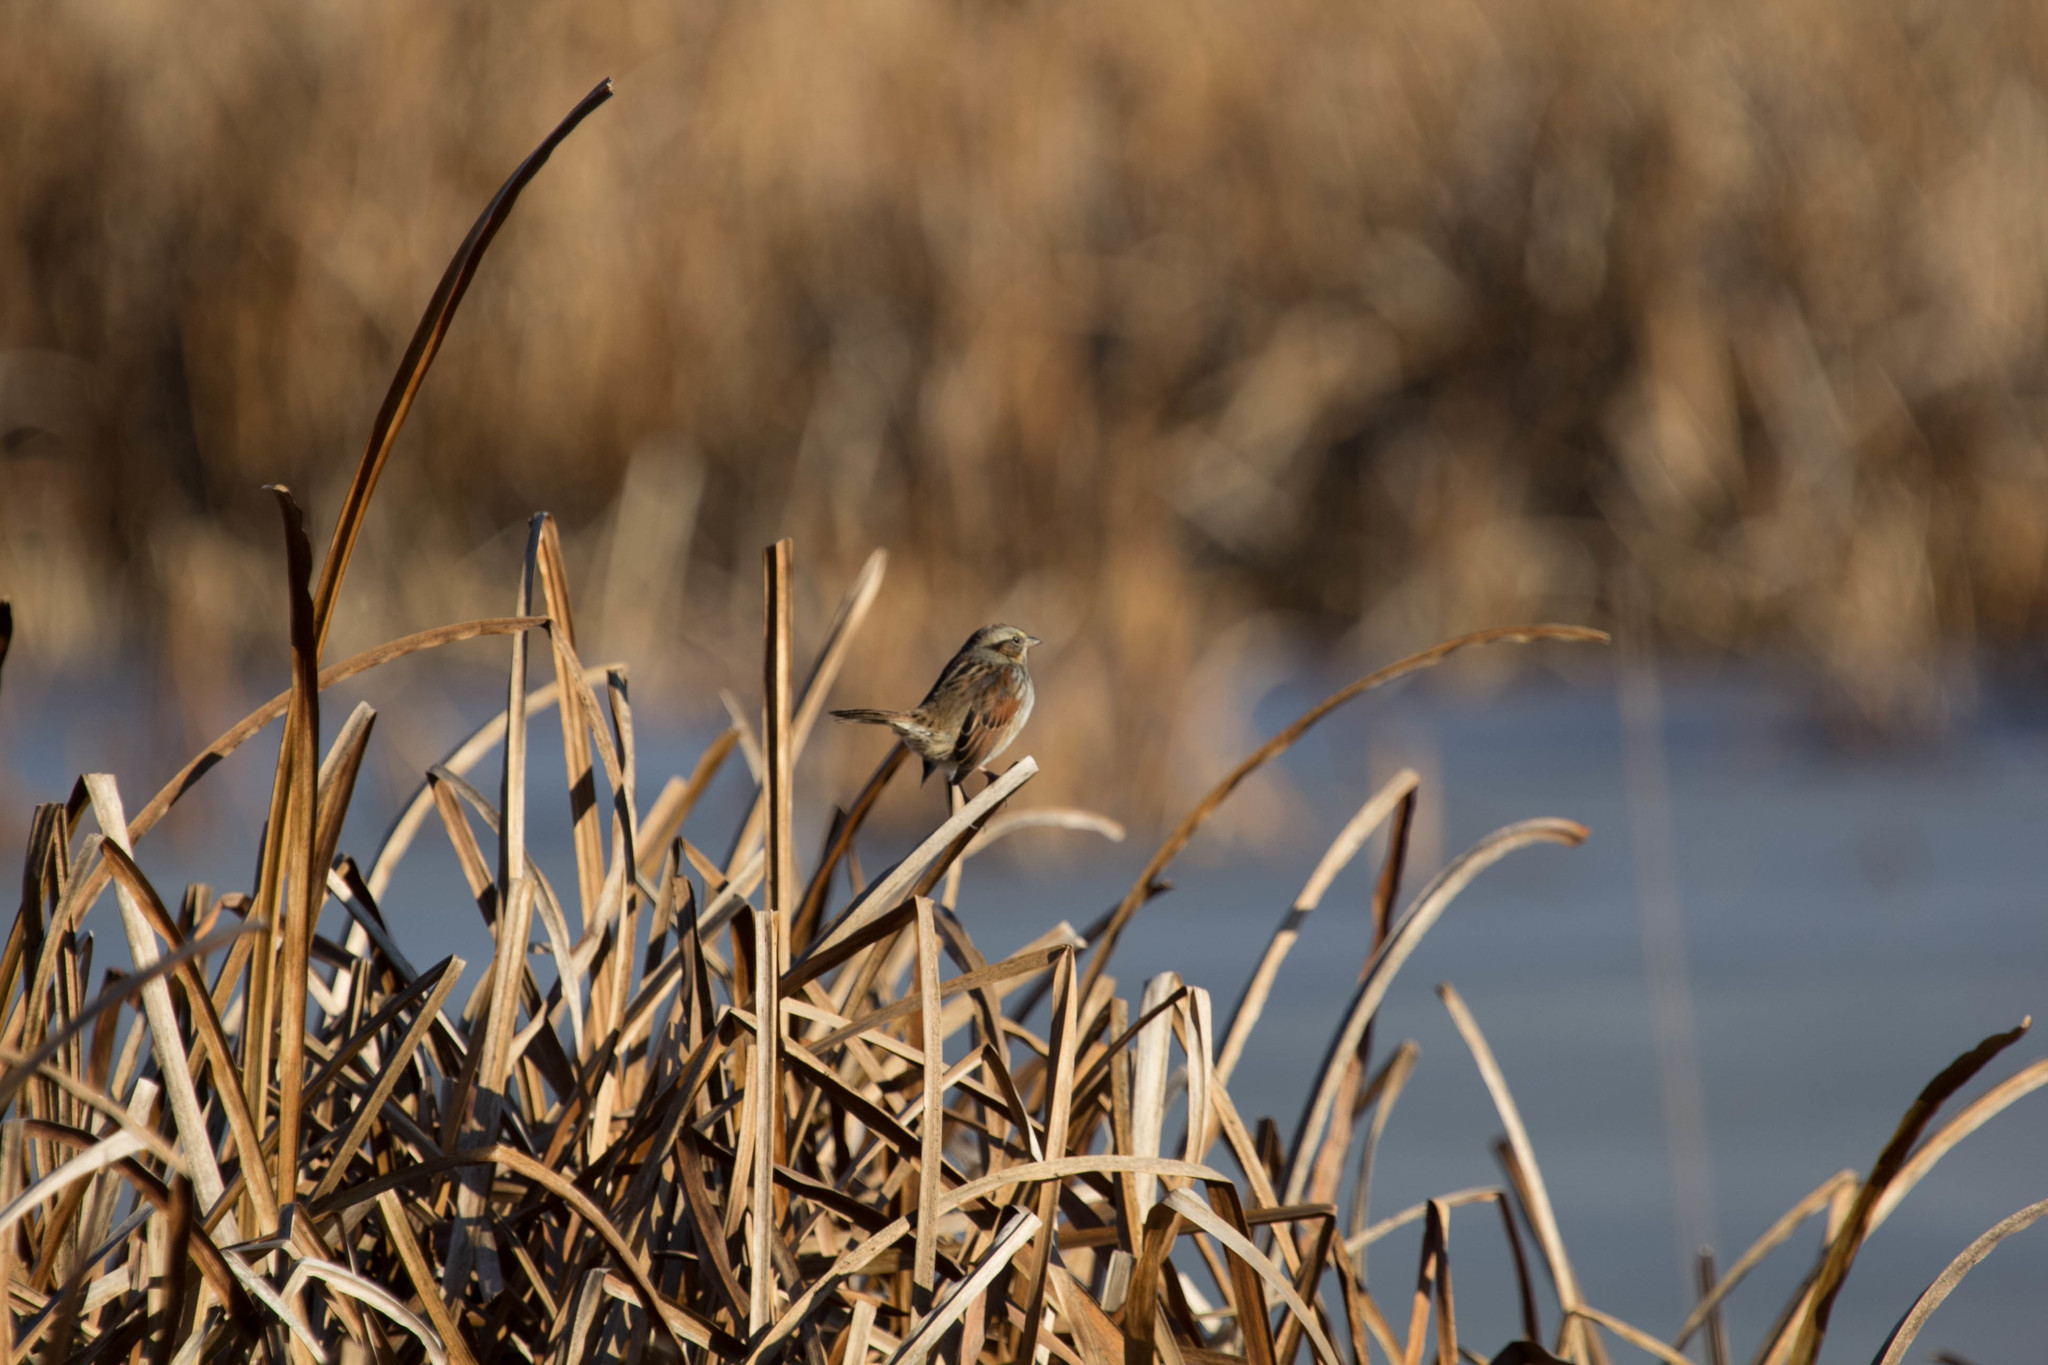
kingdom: Animalia
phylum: Chordata
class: Aves
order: Passeriformes
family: Passerellidae
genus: Melospiza
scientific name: Melospiza georgiana
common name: Swamp sparrow
